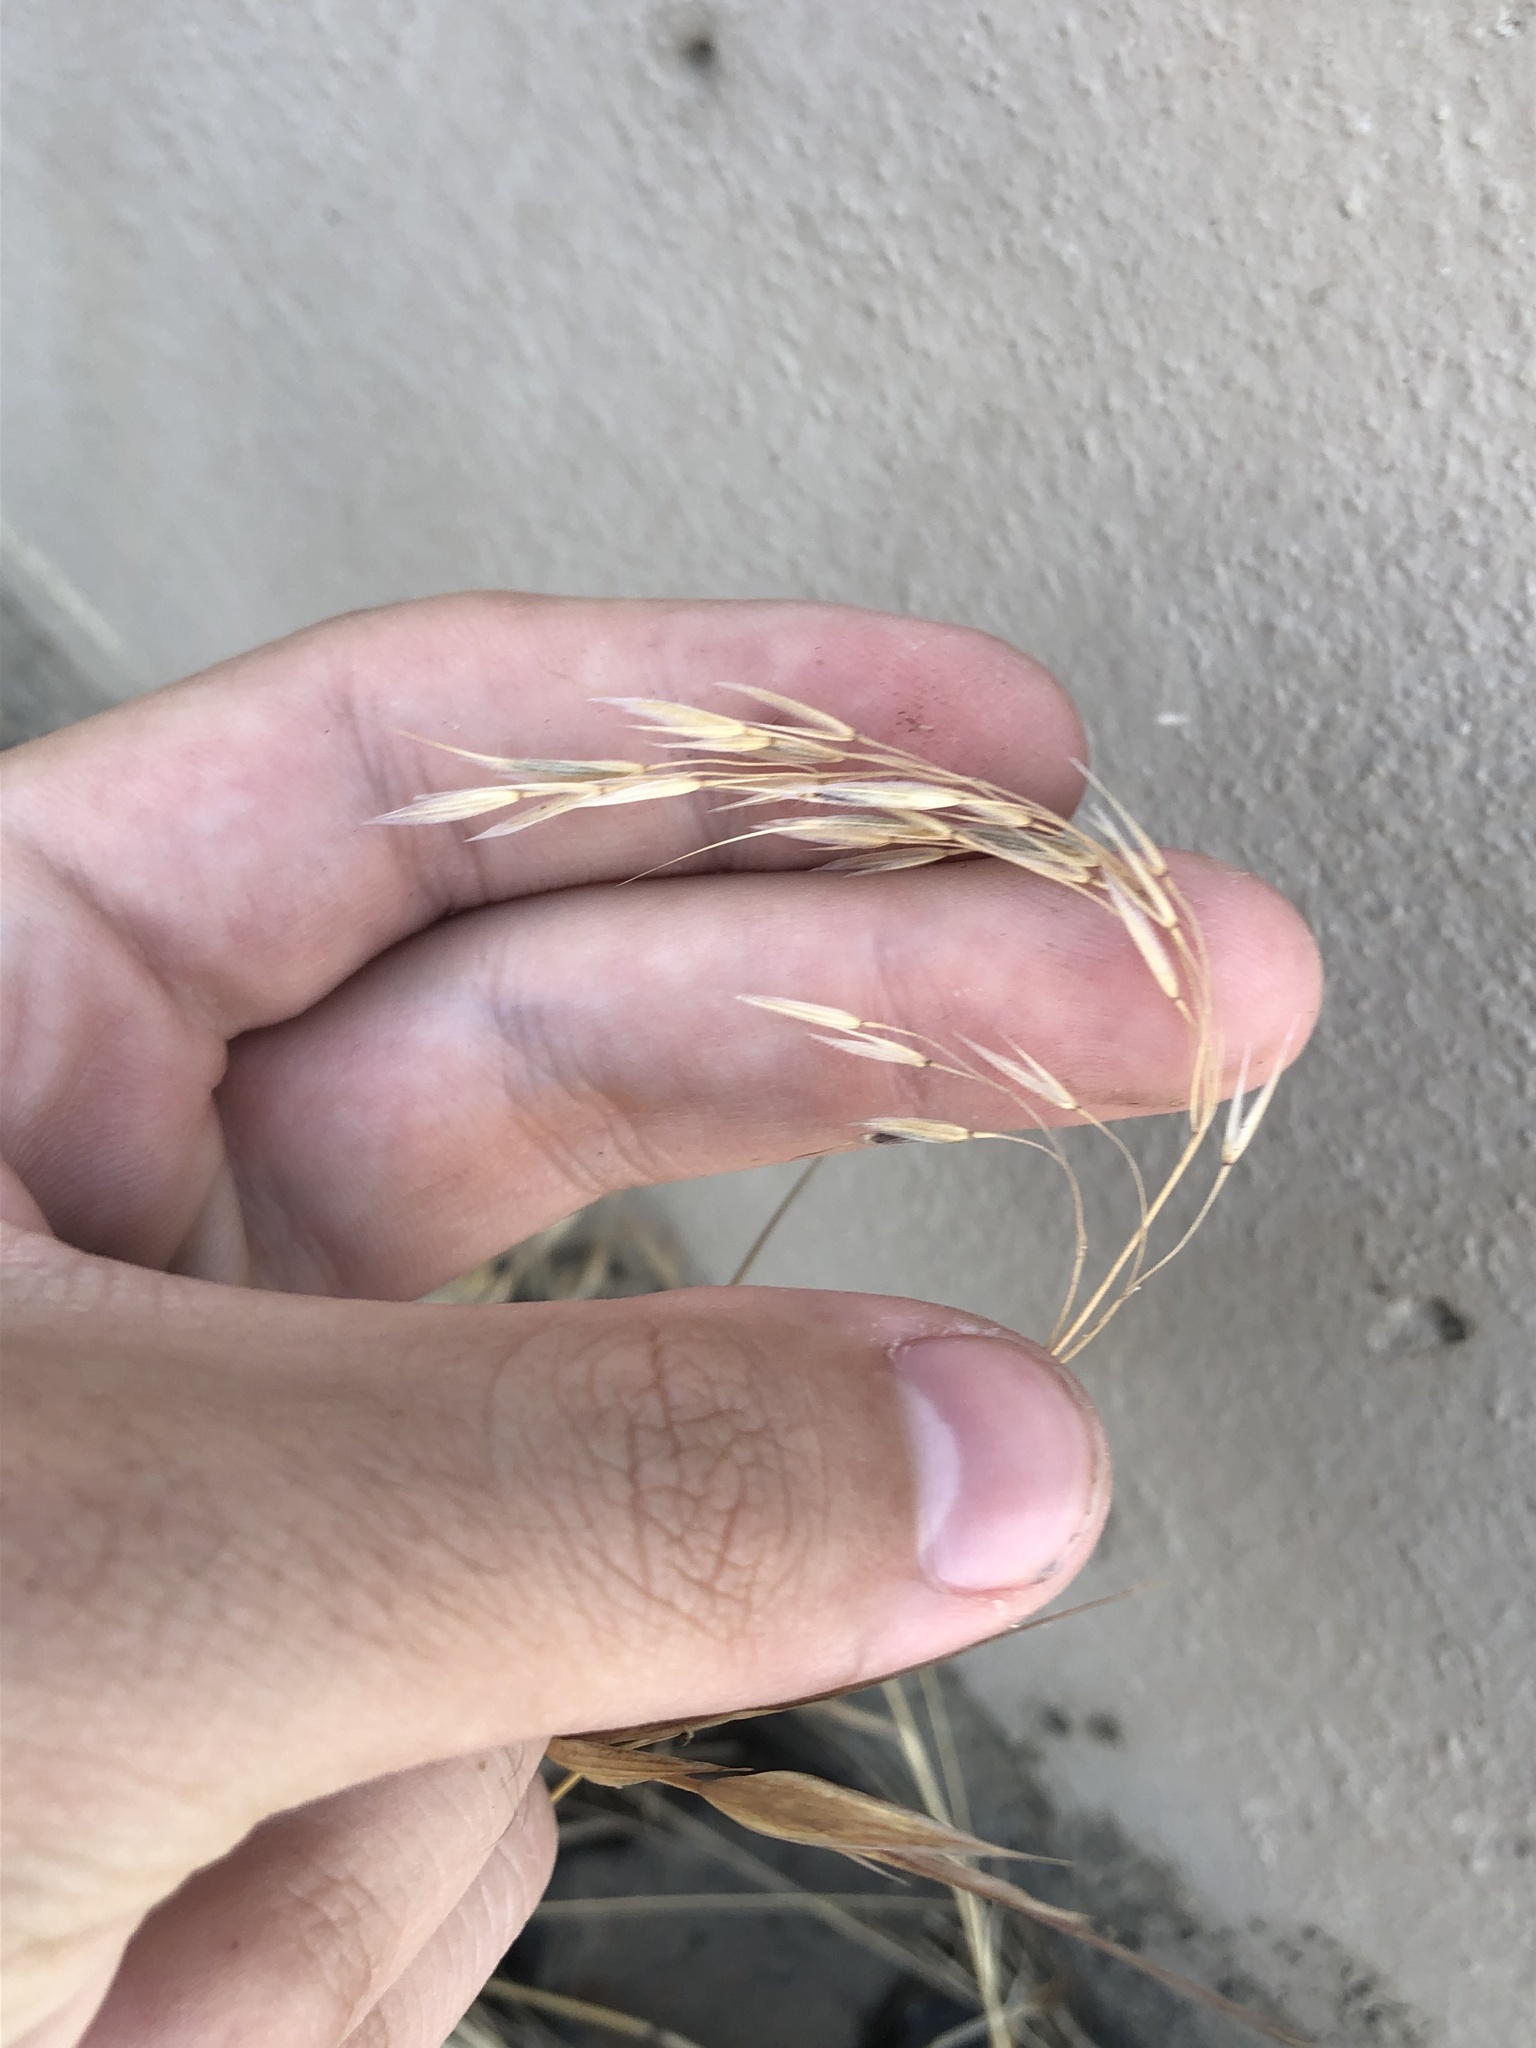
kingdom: Plantae
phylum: Tracheophyta
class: Liliopsida
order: Poales
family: Poaceae
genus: Bromus
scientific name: Bromus tectorum
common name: Cheatgrass
